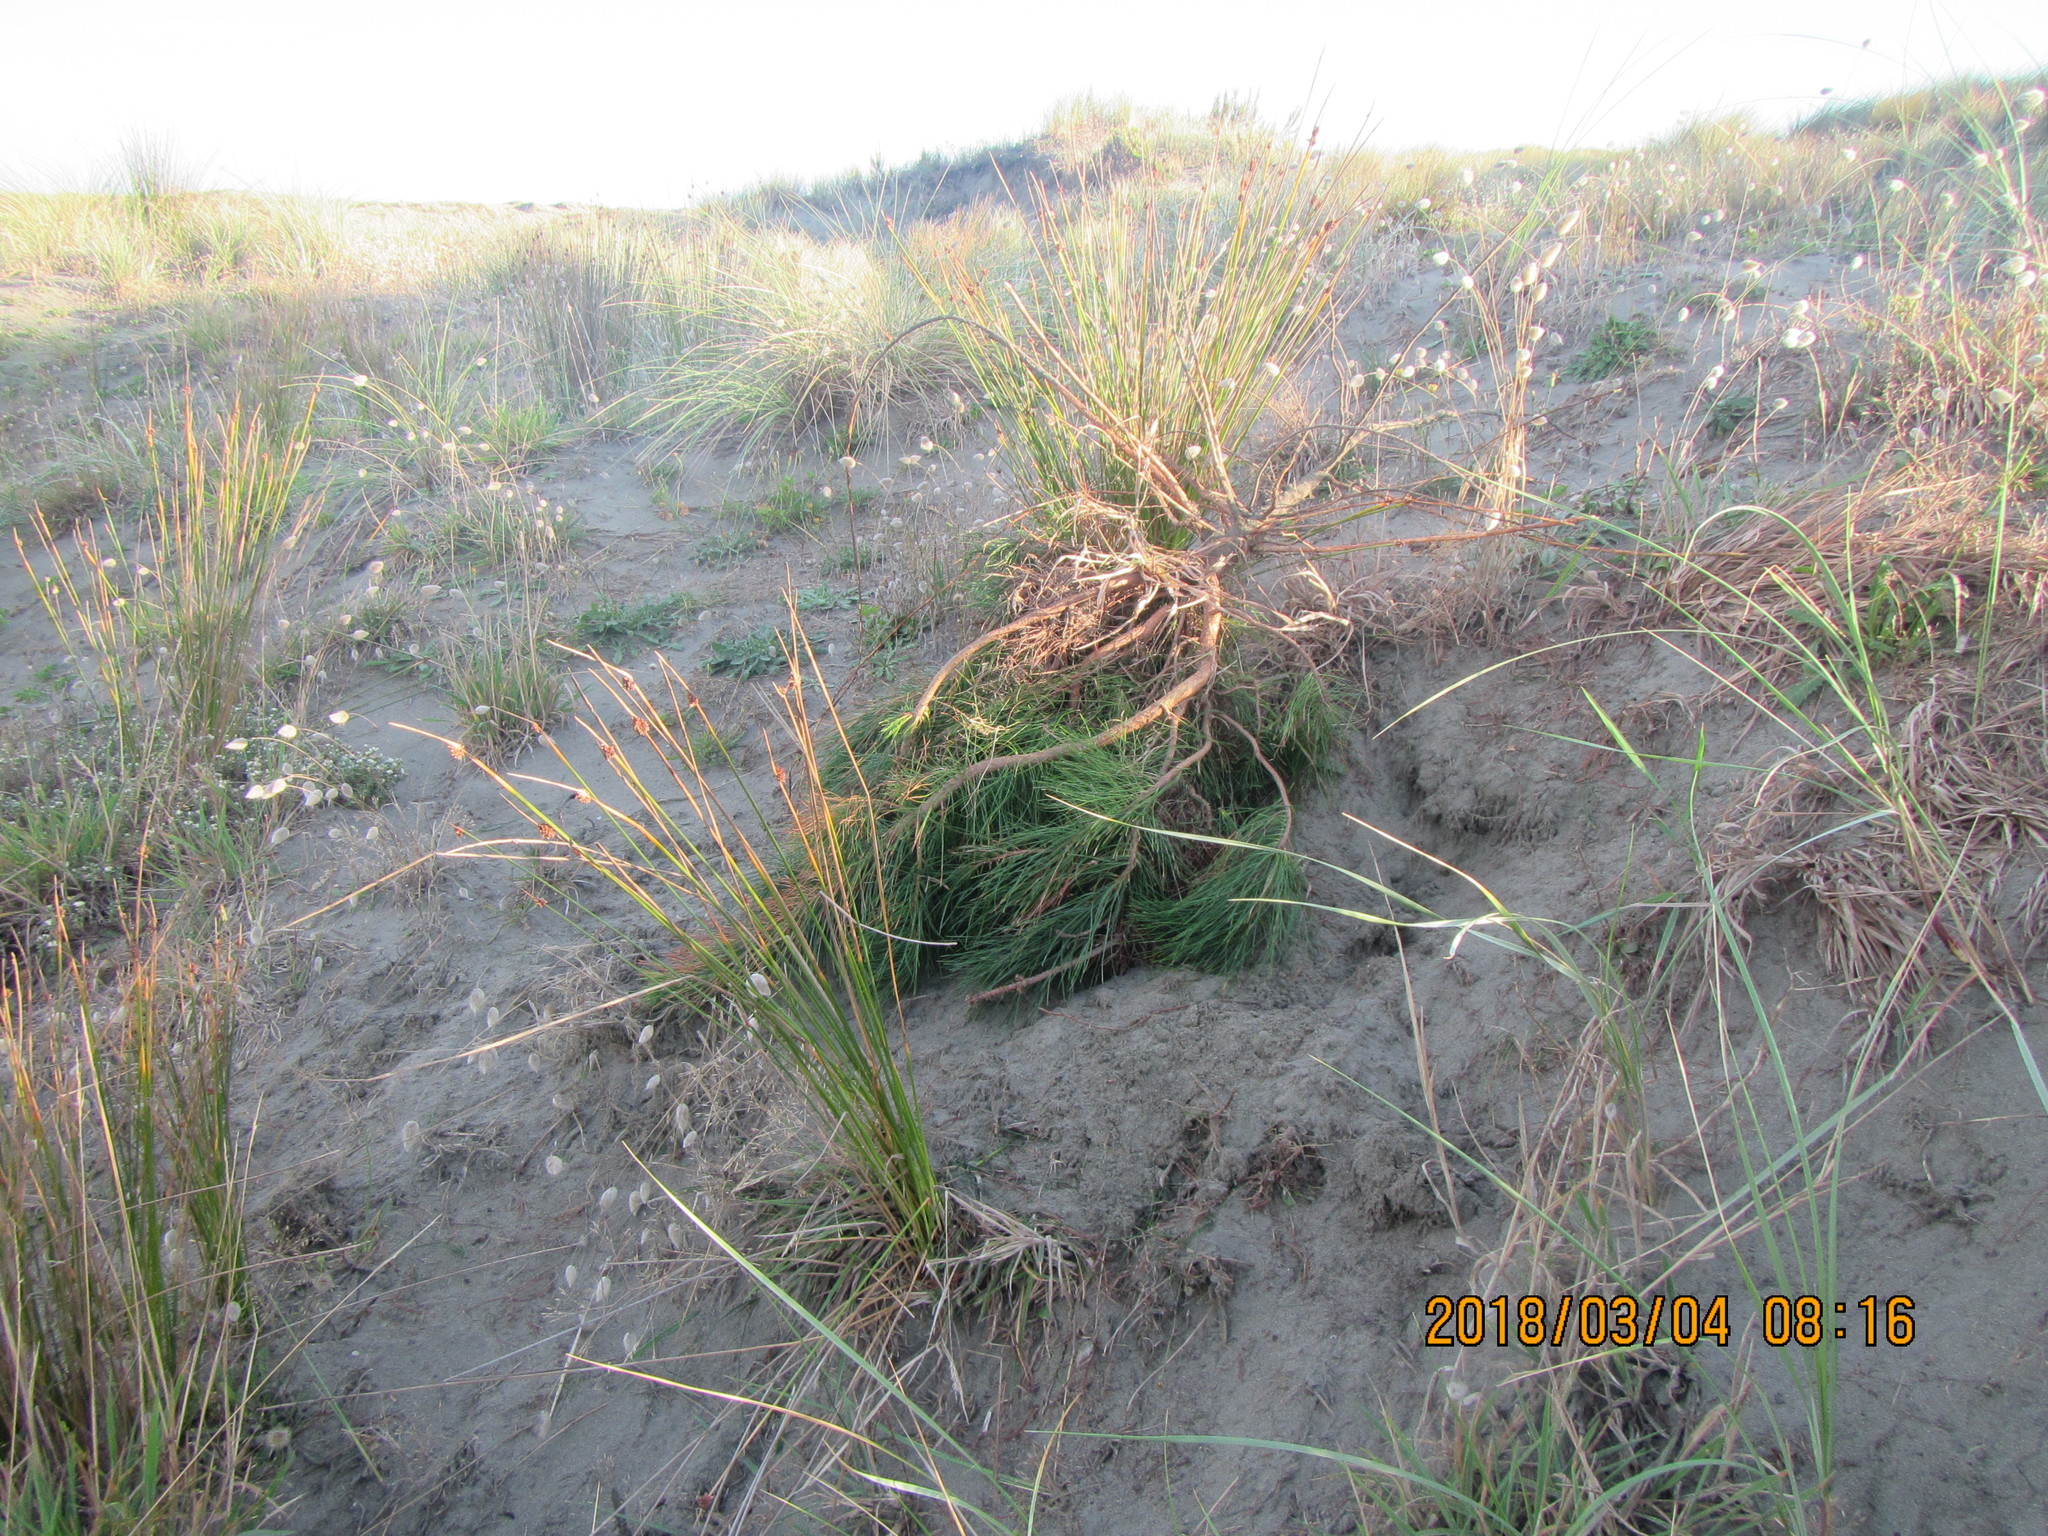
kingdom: Animalia
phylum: Arthropoda
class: Insecta
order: Hymenoptera
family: Sphecidae
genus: Podalonia
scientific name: Podalonia tydei
